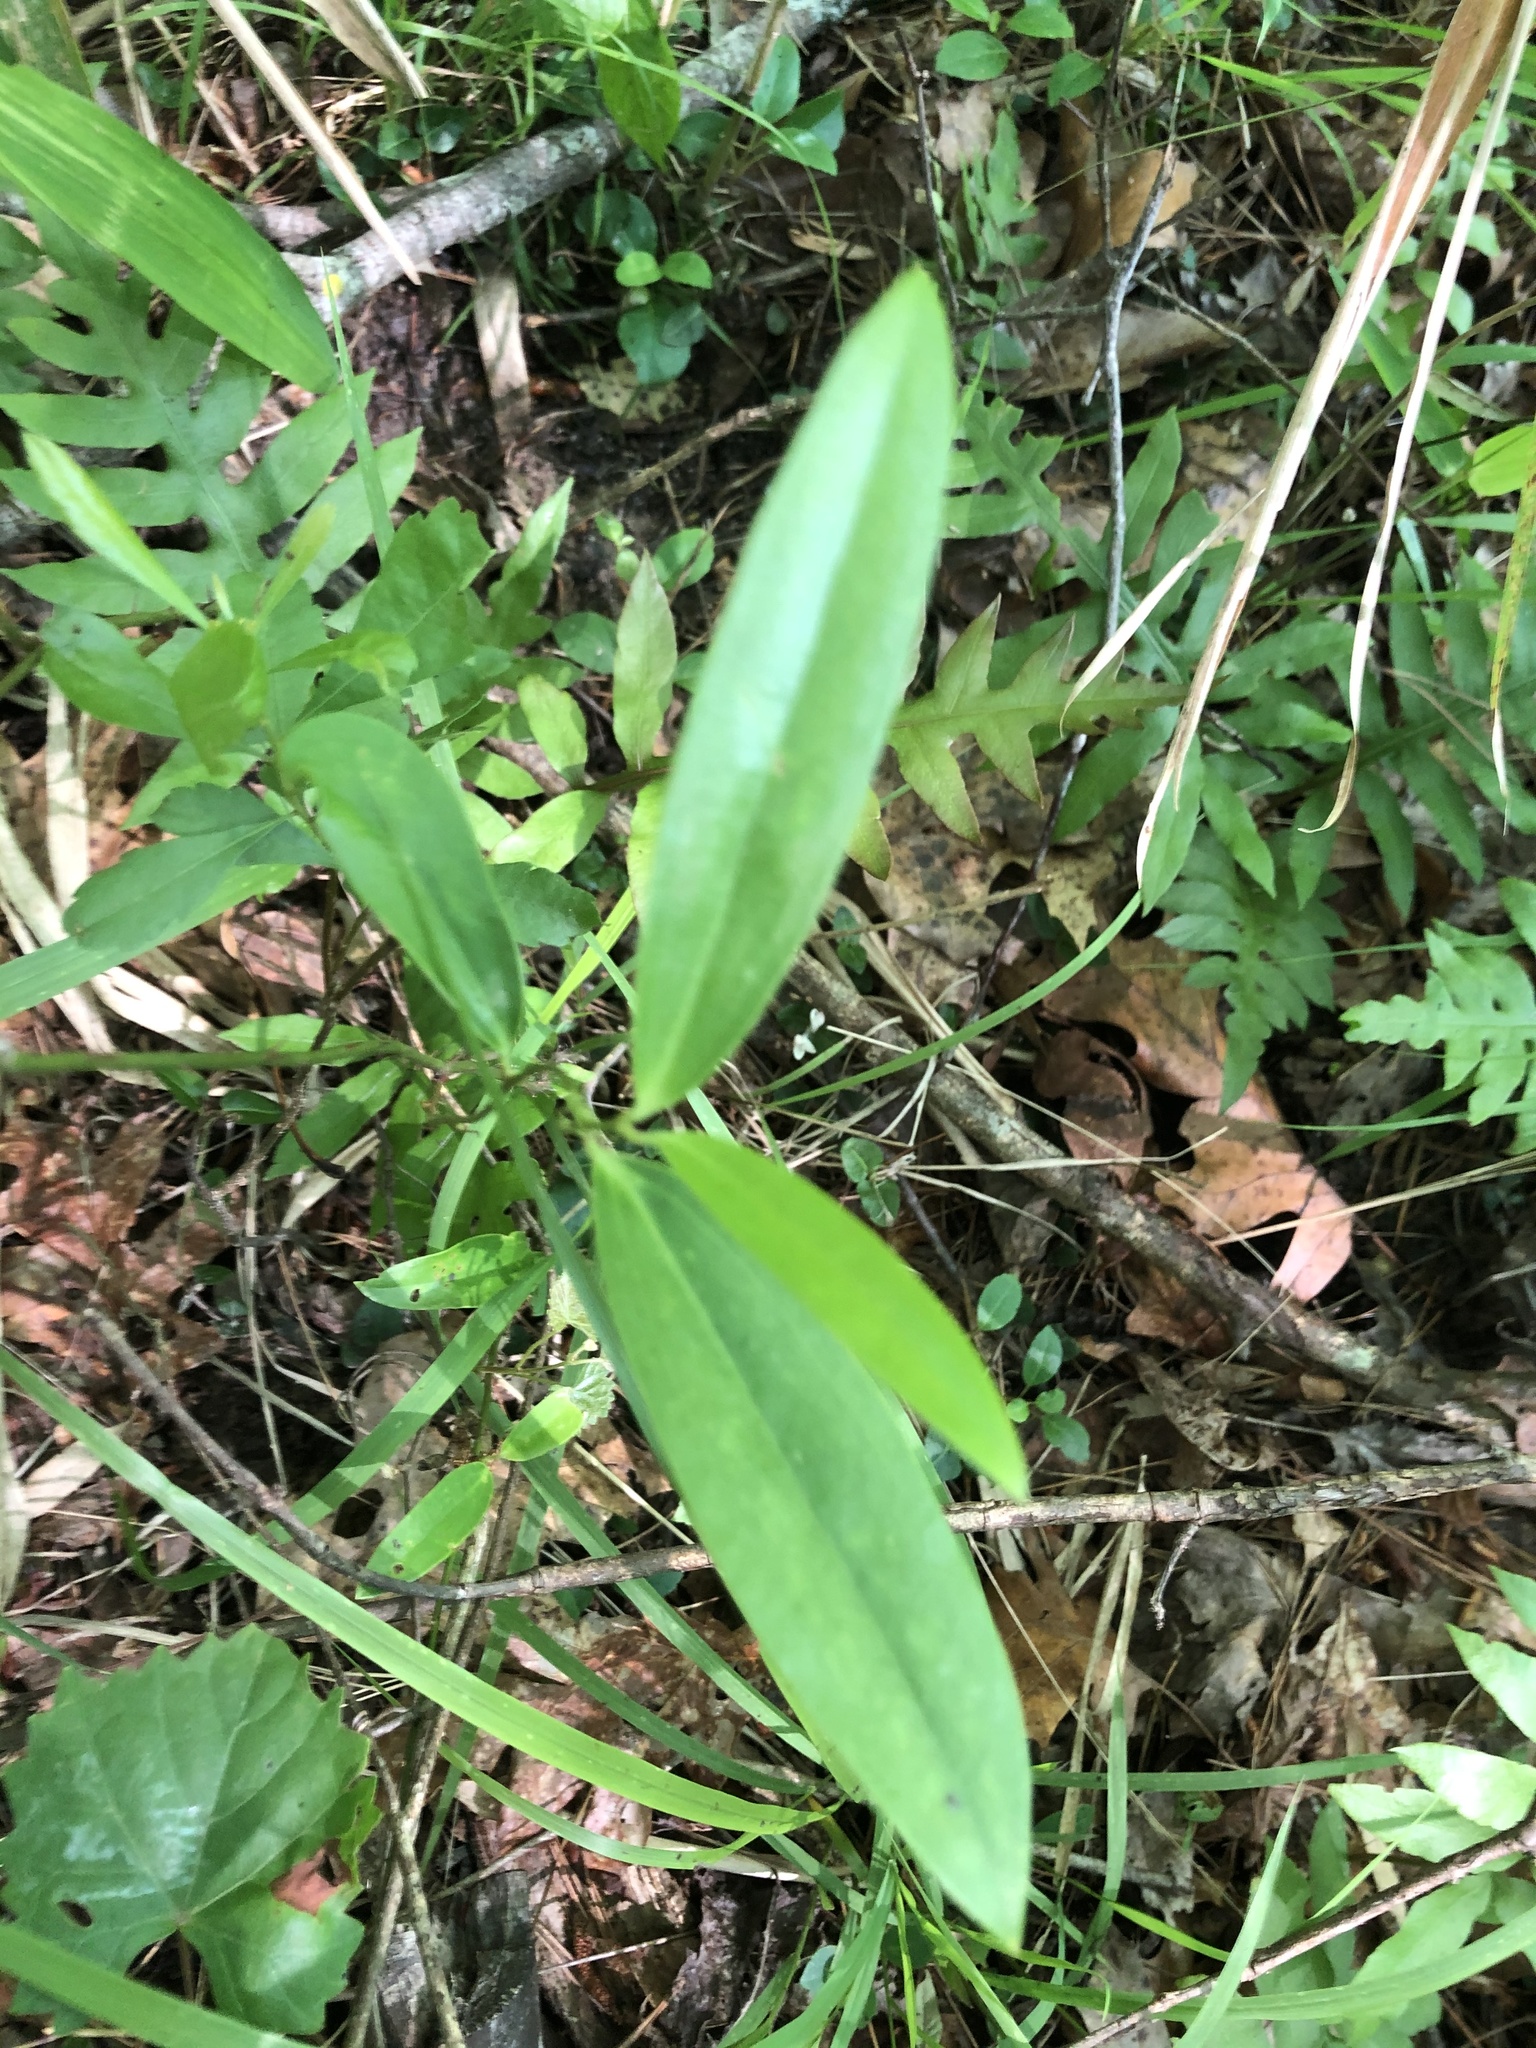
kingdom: Plantae
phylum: Tracheophyta
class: Liliopsida
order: Liliales
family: Smilacaceae
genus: Smilax
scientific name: Smilax laurifolia
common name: Bamboovine
